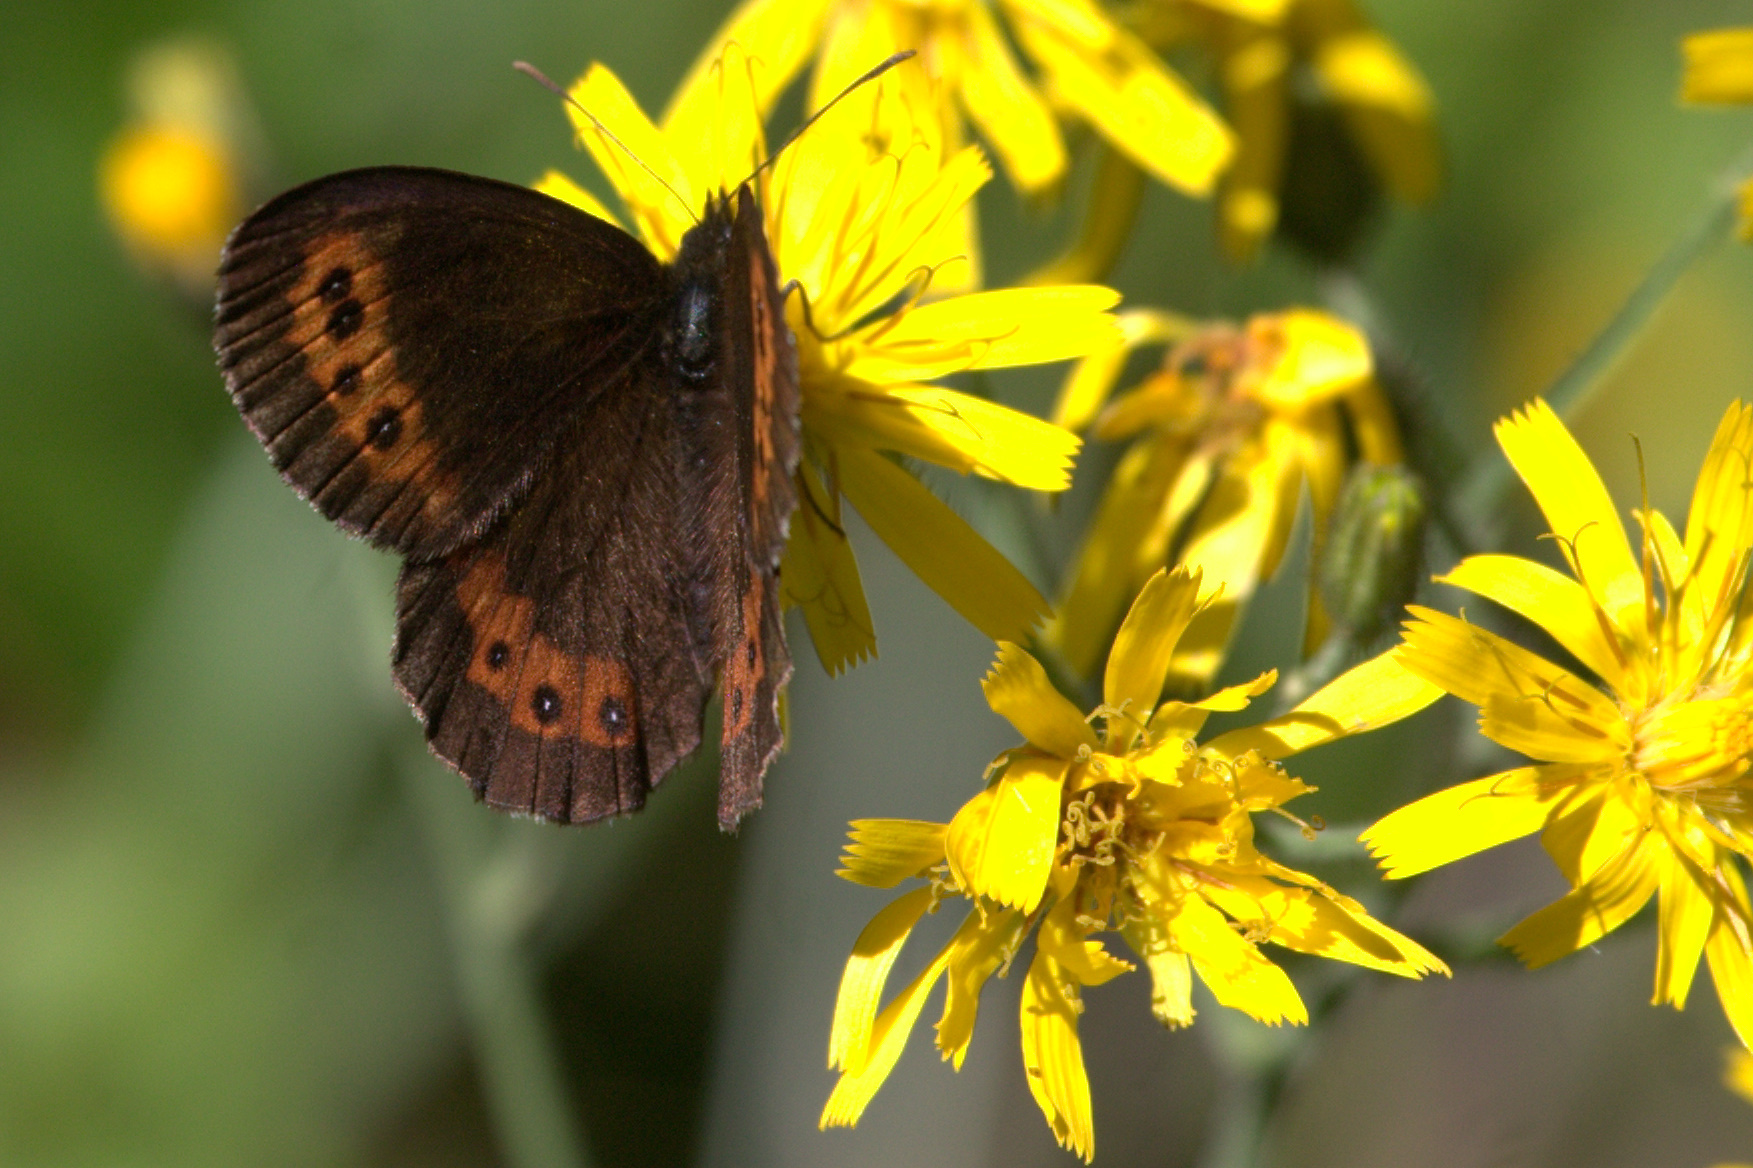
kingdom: Animalia
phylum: Arthropoda
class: Insecta
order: Lepidoptera
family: Nymphalidae
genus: Erebia
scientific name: Erebia ligea
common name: Arran brown
